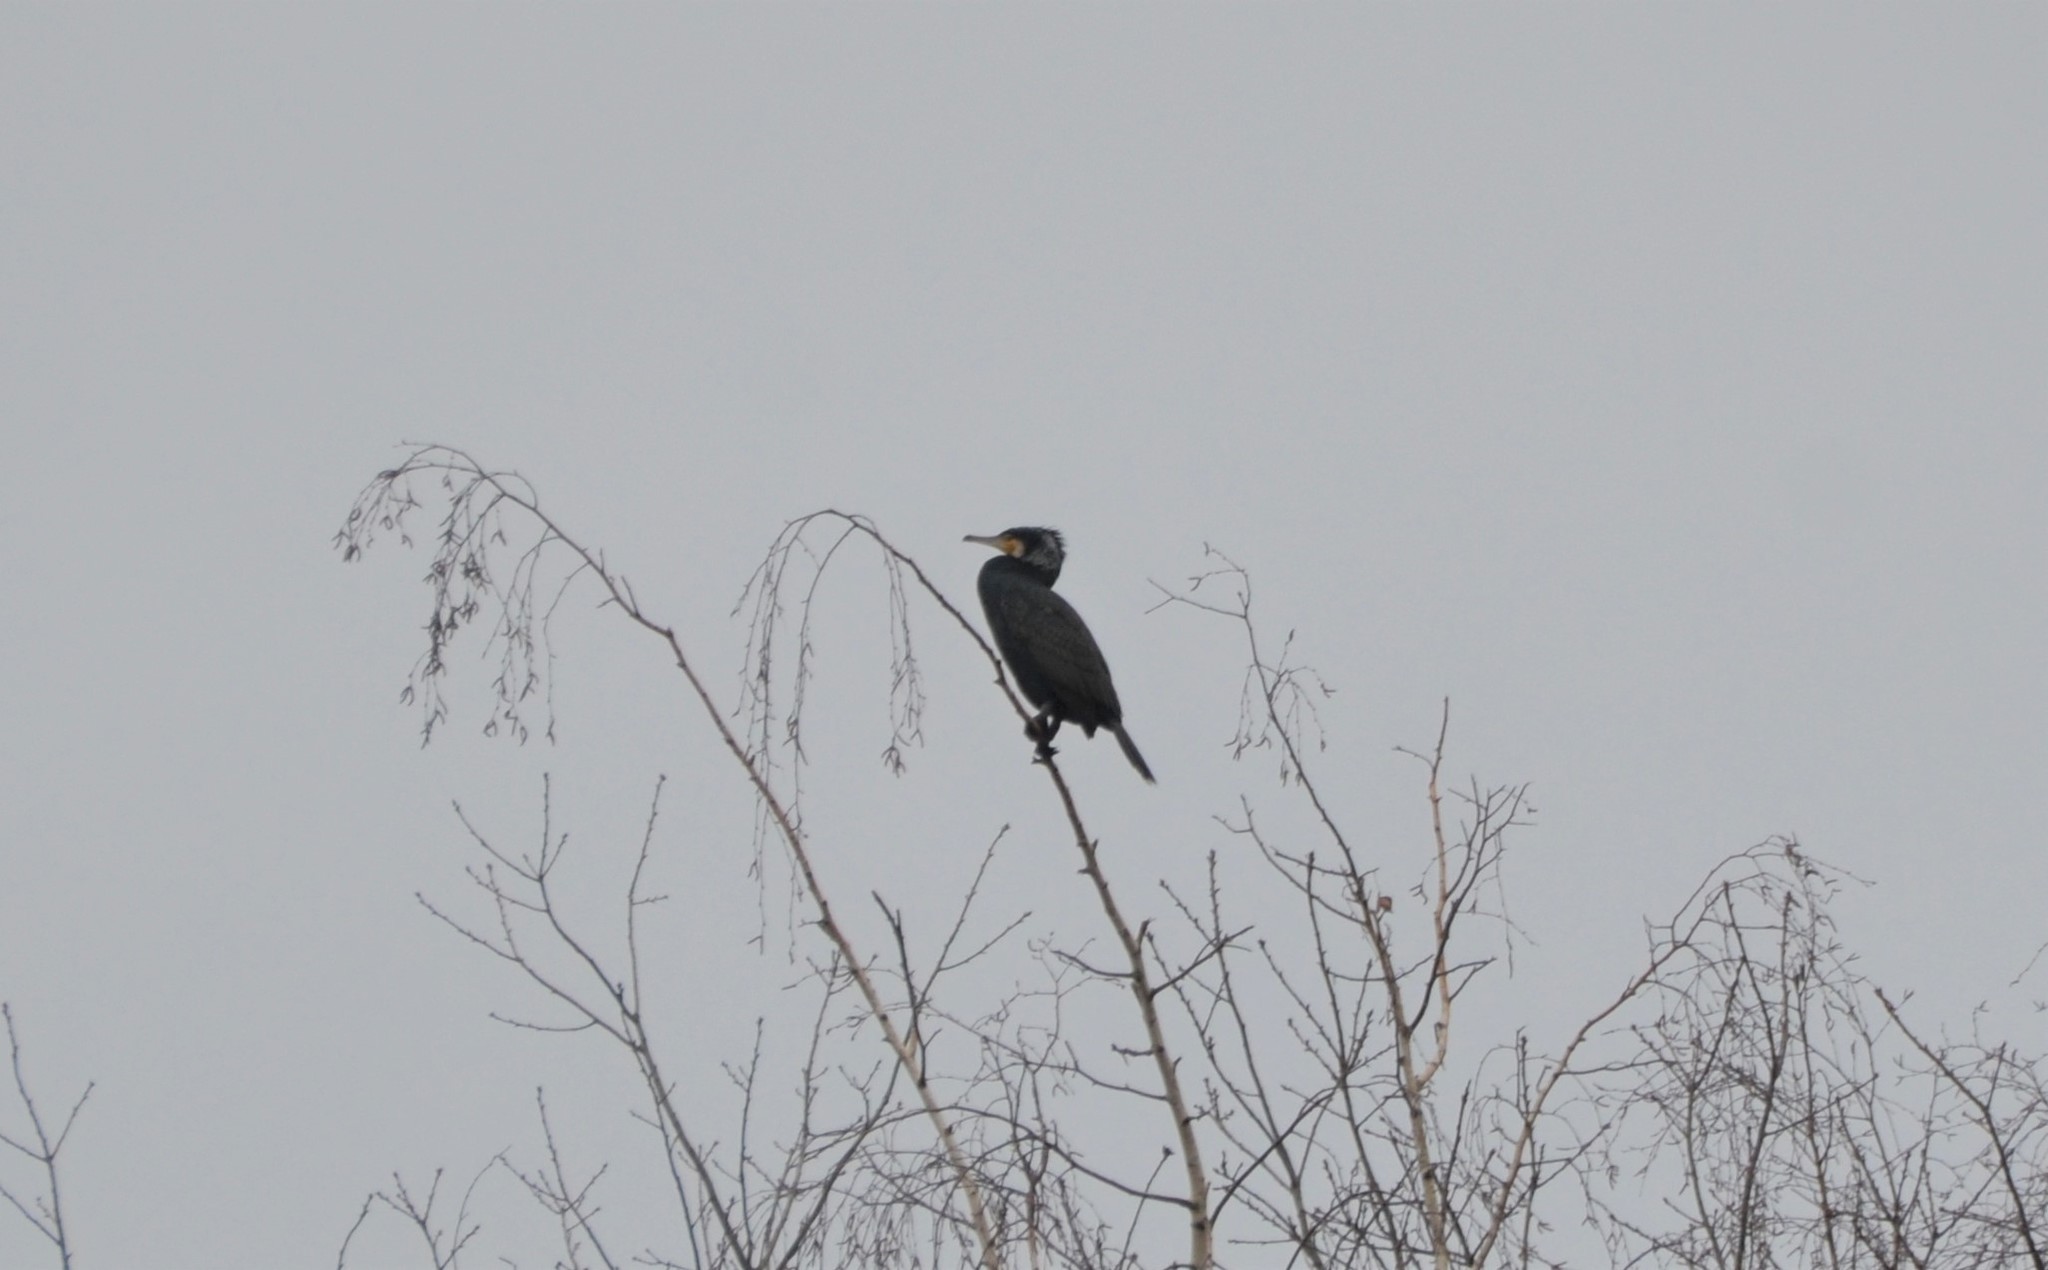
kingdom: Animalia
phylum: Chordata
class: Aves
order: Suliformes
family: Phalacrocoracidae
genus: Phalacrocorax
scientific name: Phalacrocorax carbo
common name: Great cormorant
